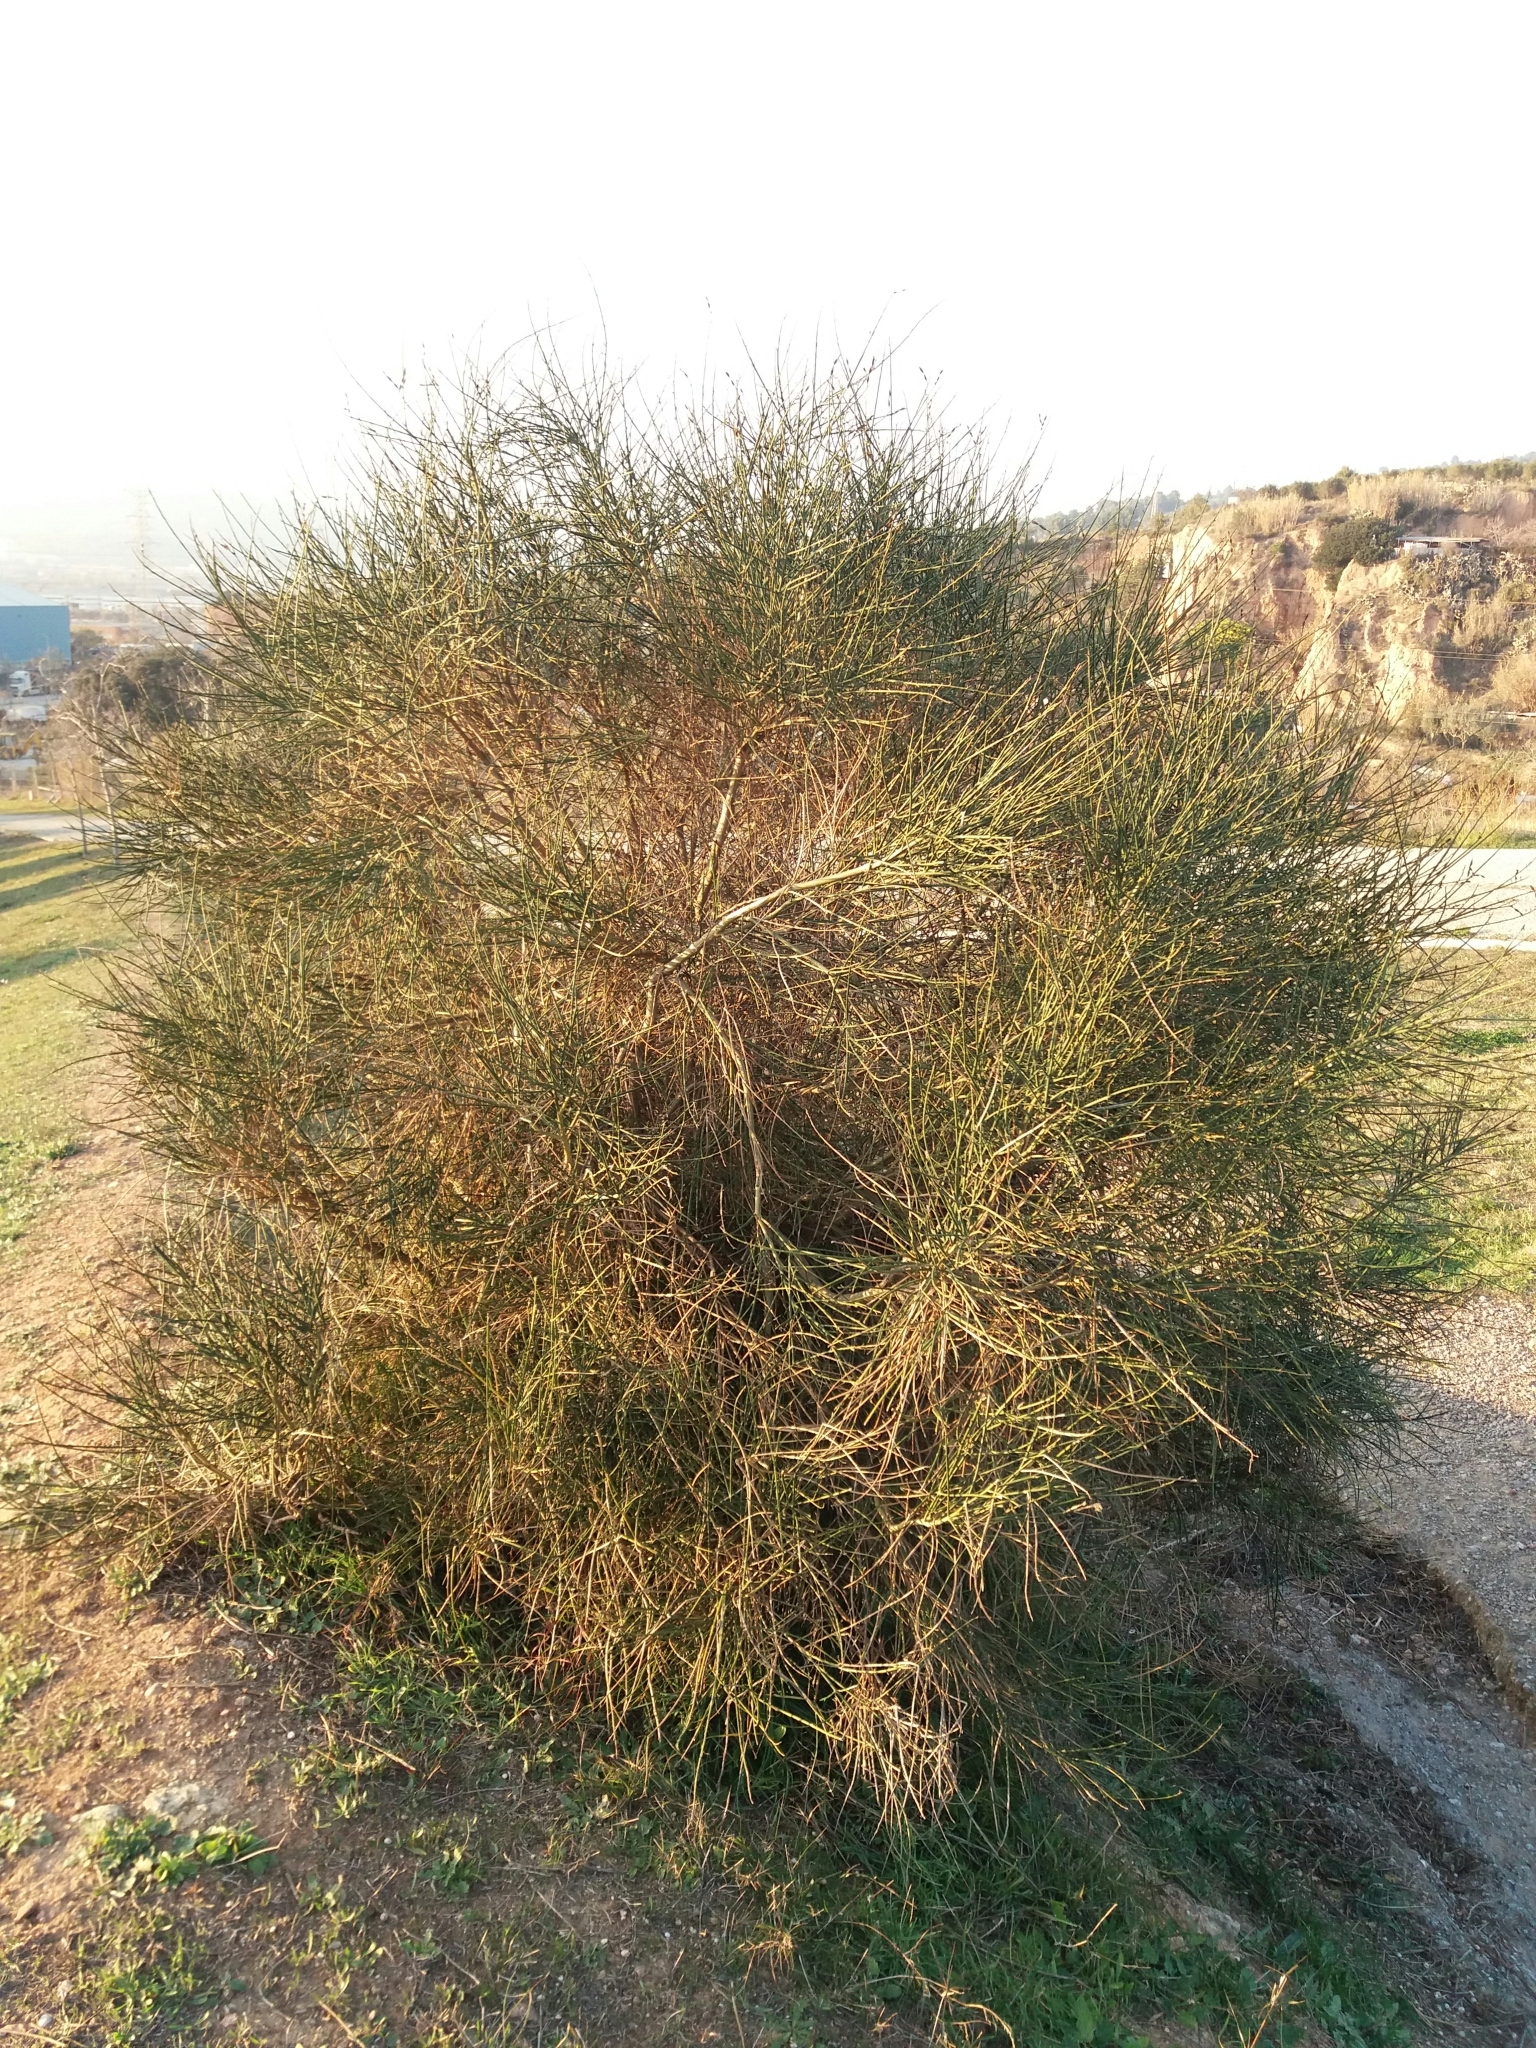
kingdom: Plantae
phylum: Tracheophyta
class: Magnoliopsida
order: Fabales
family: Fabaceae
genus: Spartium
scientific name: Spartium junceum
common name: Spanish broom
